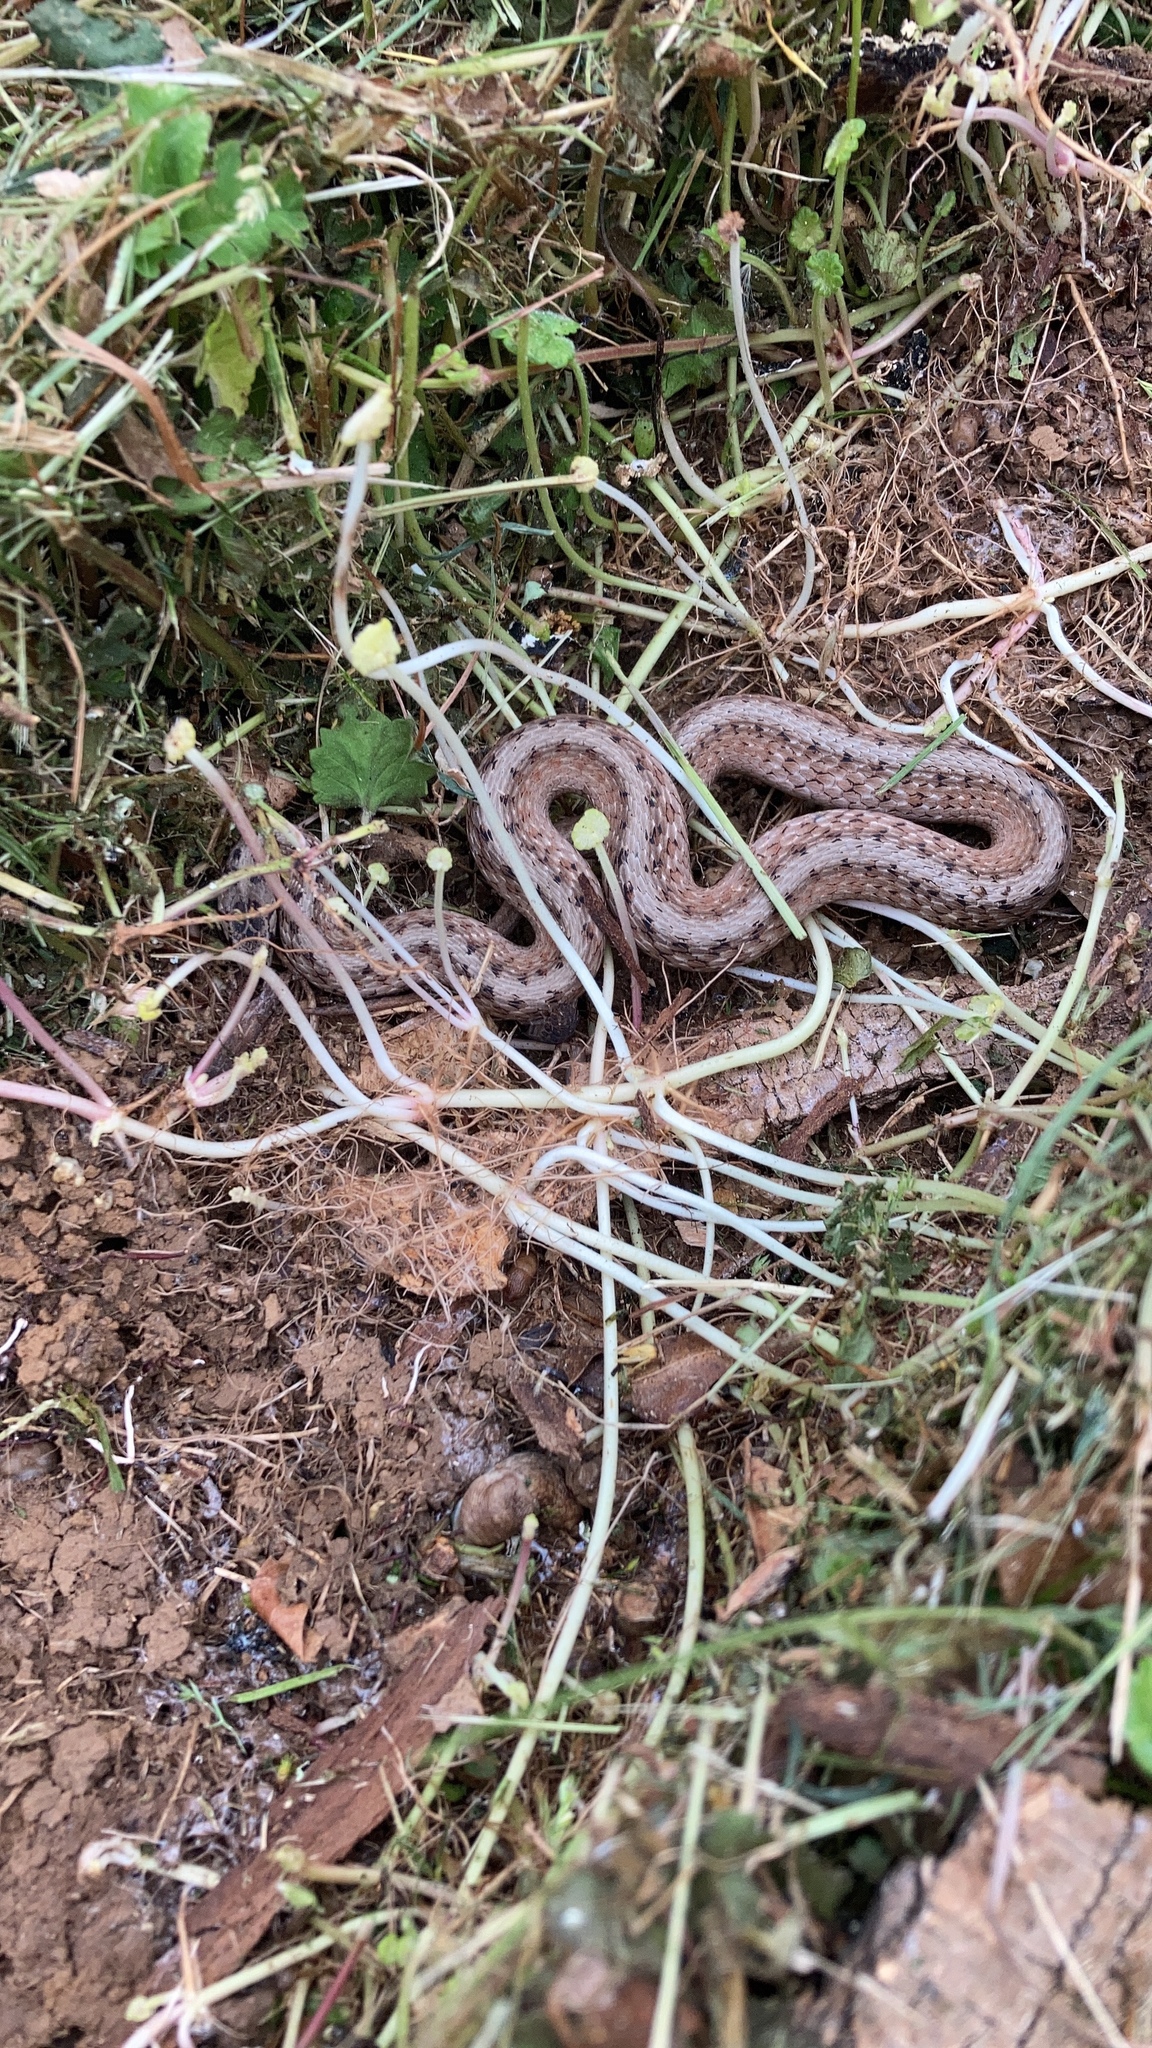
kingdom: Animalia
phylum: Chordata
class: Squamata
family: Colubridae
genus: Storeria
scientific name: Storeria dekayi
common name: (dekay’s) brown snake
